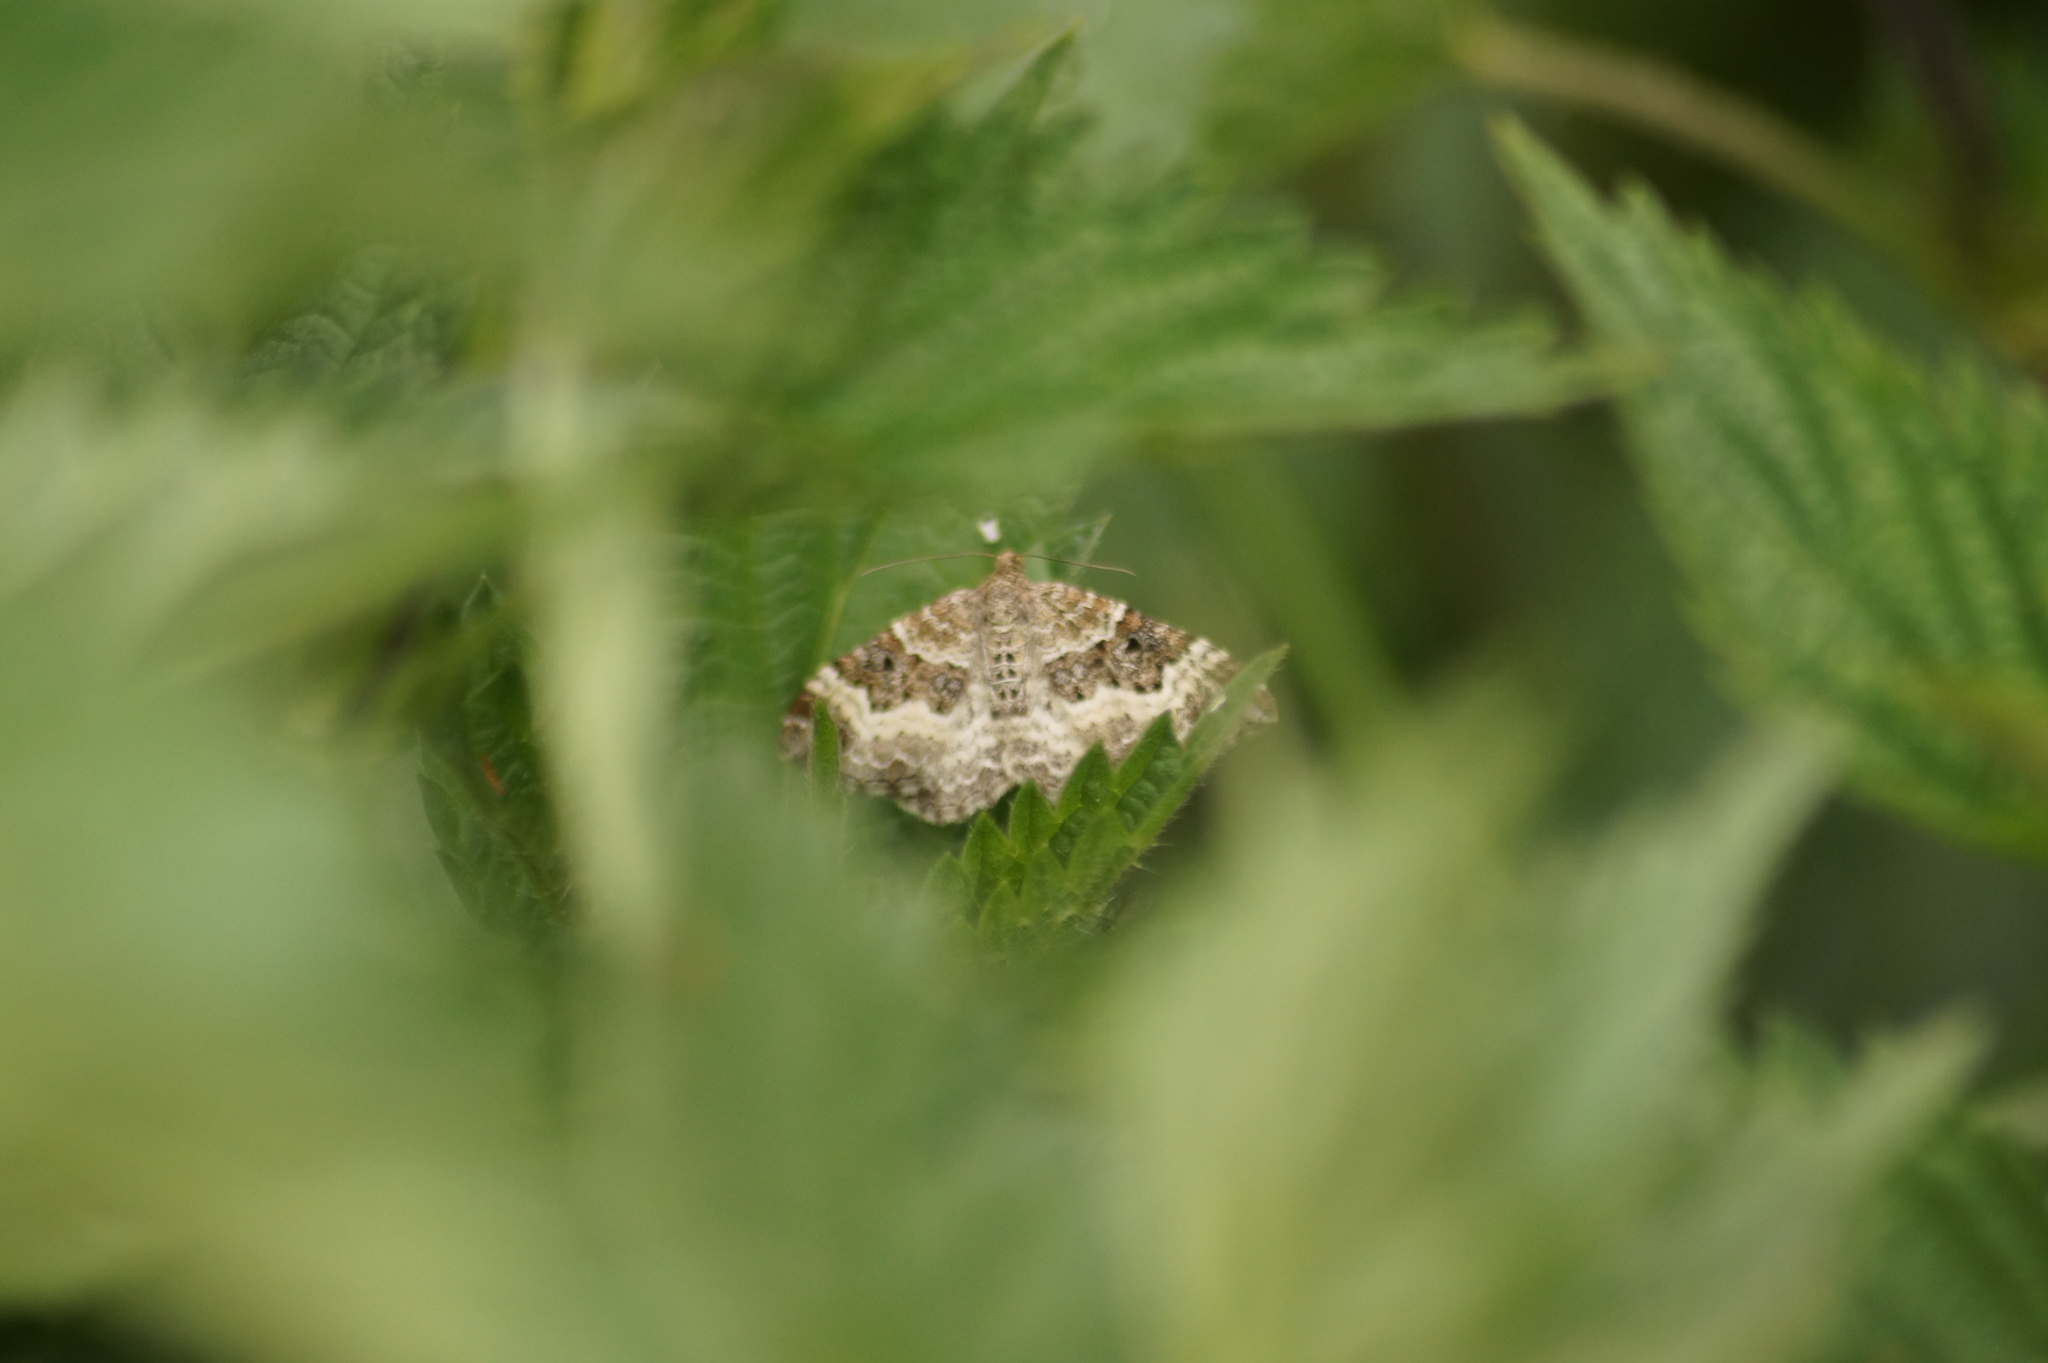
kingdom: Animalia
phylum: Arthropoda
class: Insecta
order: Lepidoptera
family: Geometridae
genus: Epirrhoe
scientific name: Epirrhoe alternata
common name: Common carpet
